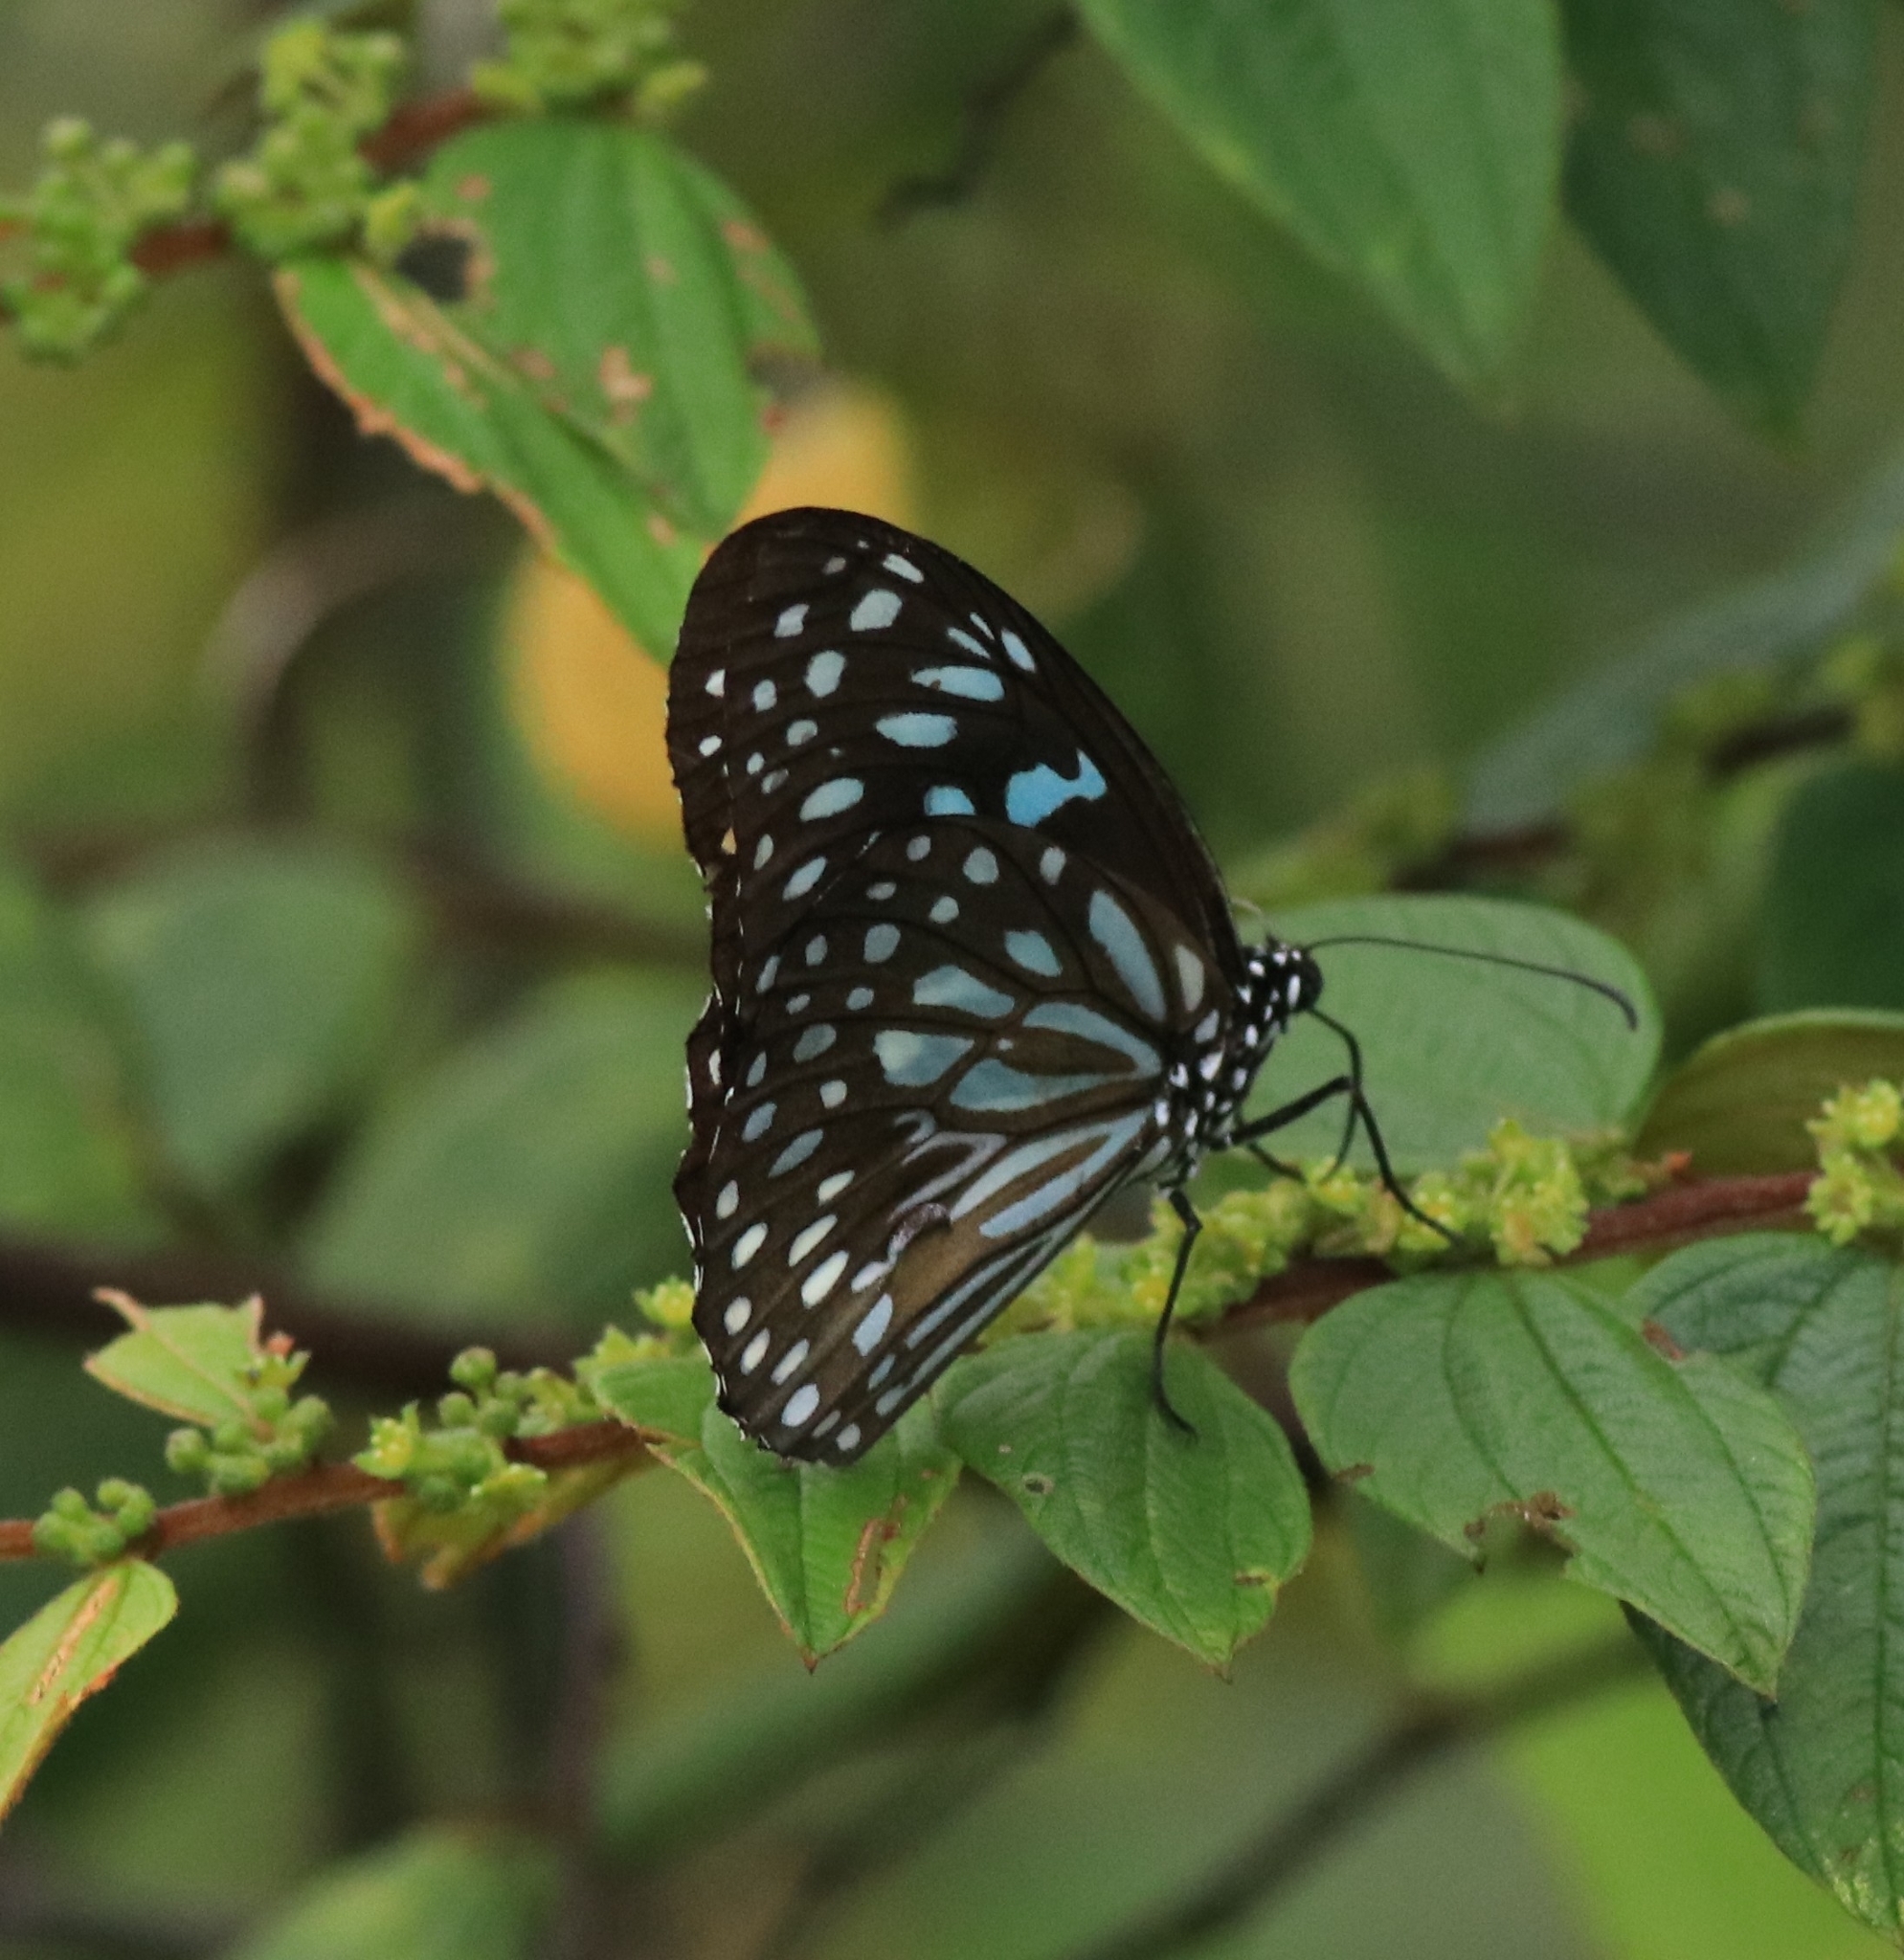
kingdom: Animalia
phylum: Arthropoda
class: Insecta
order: Lepidoptera
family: Nymphalidae
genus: Tirumala
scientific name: Tirumala septentrionis
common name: Dark blue tiger butterfly
